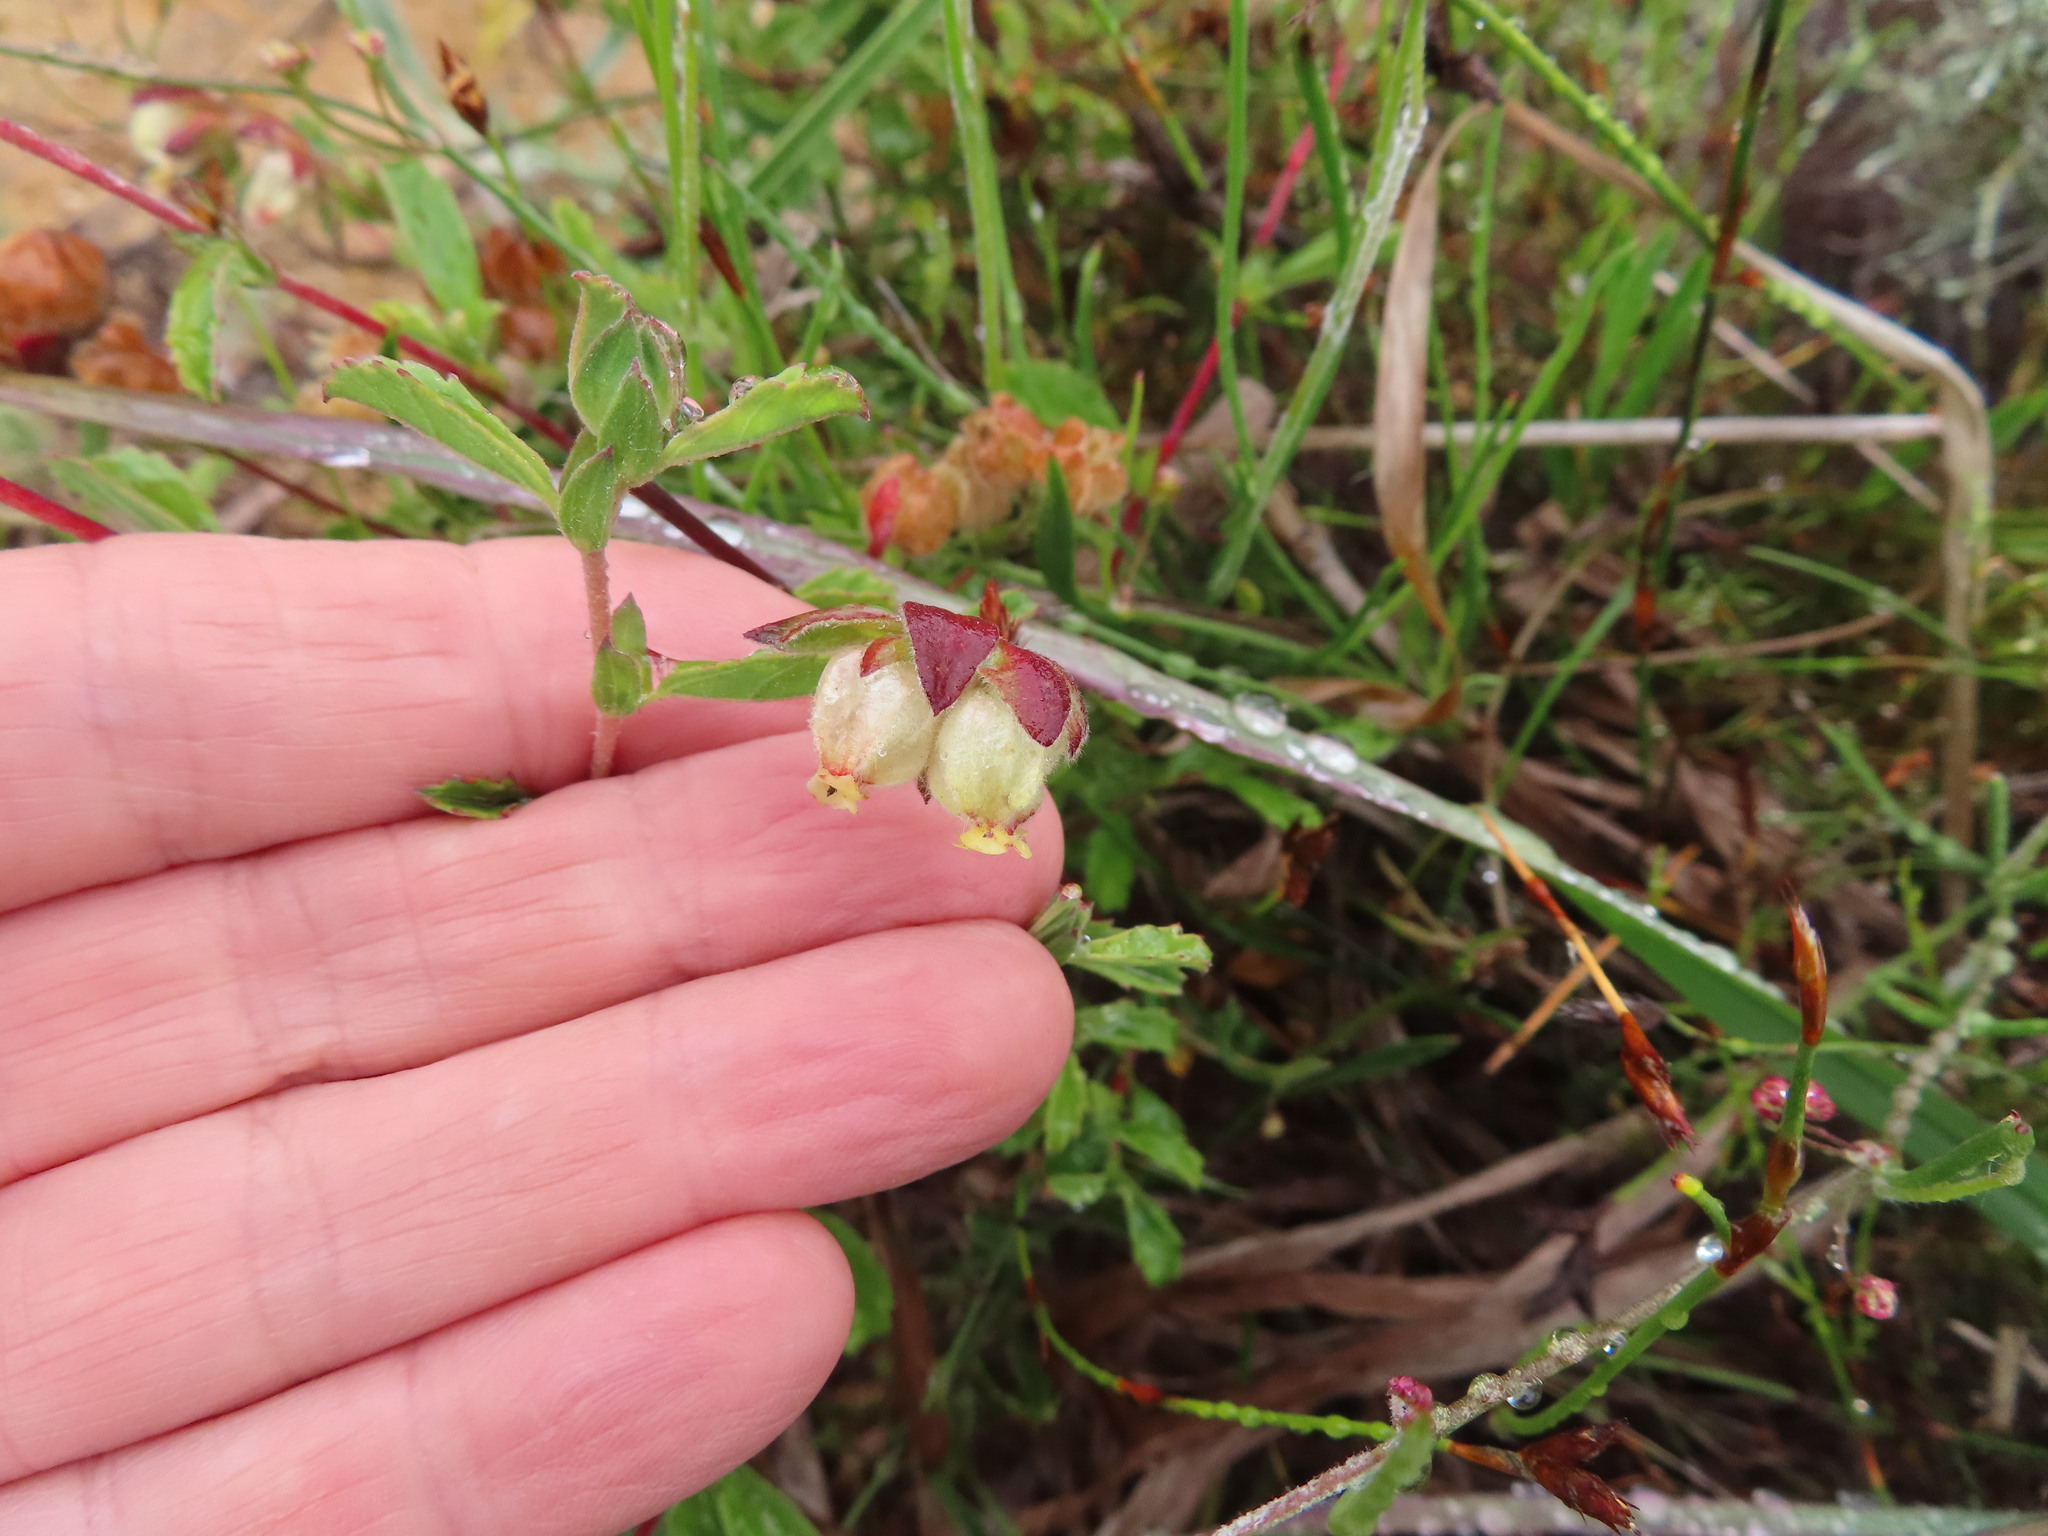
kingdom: Plantae
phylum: Tracheophyta
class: Magnoliopsida
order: Malvales
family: Malvaceae
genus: Hermannia
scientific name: Hermannia hyssopifolia
